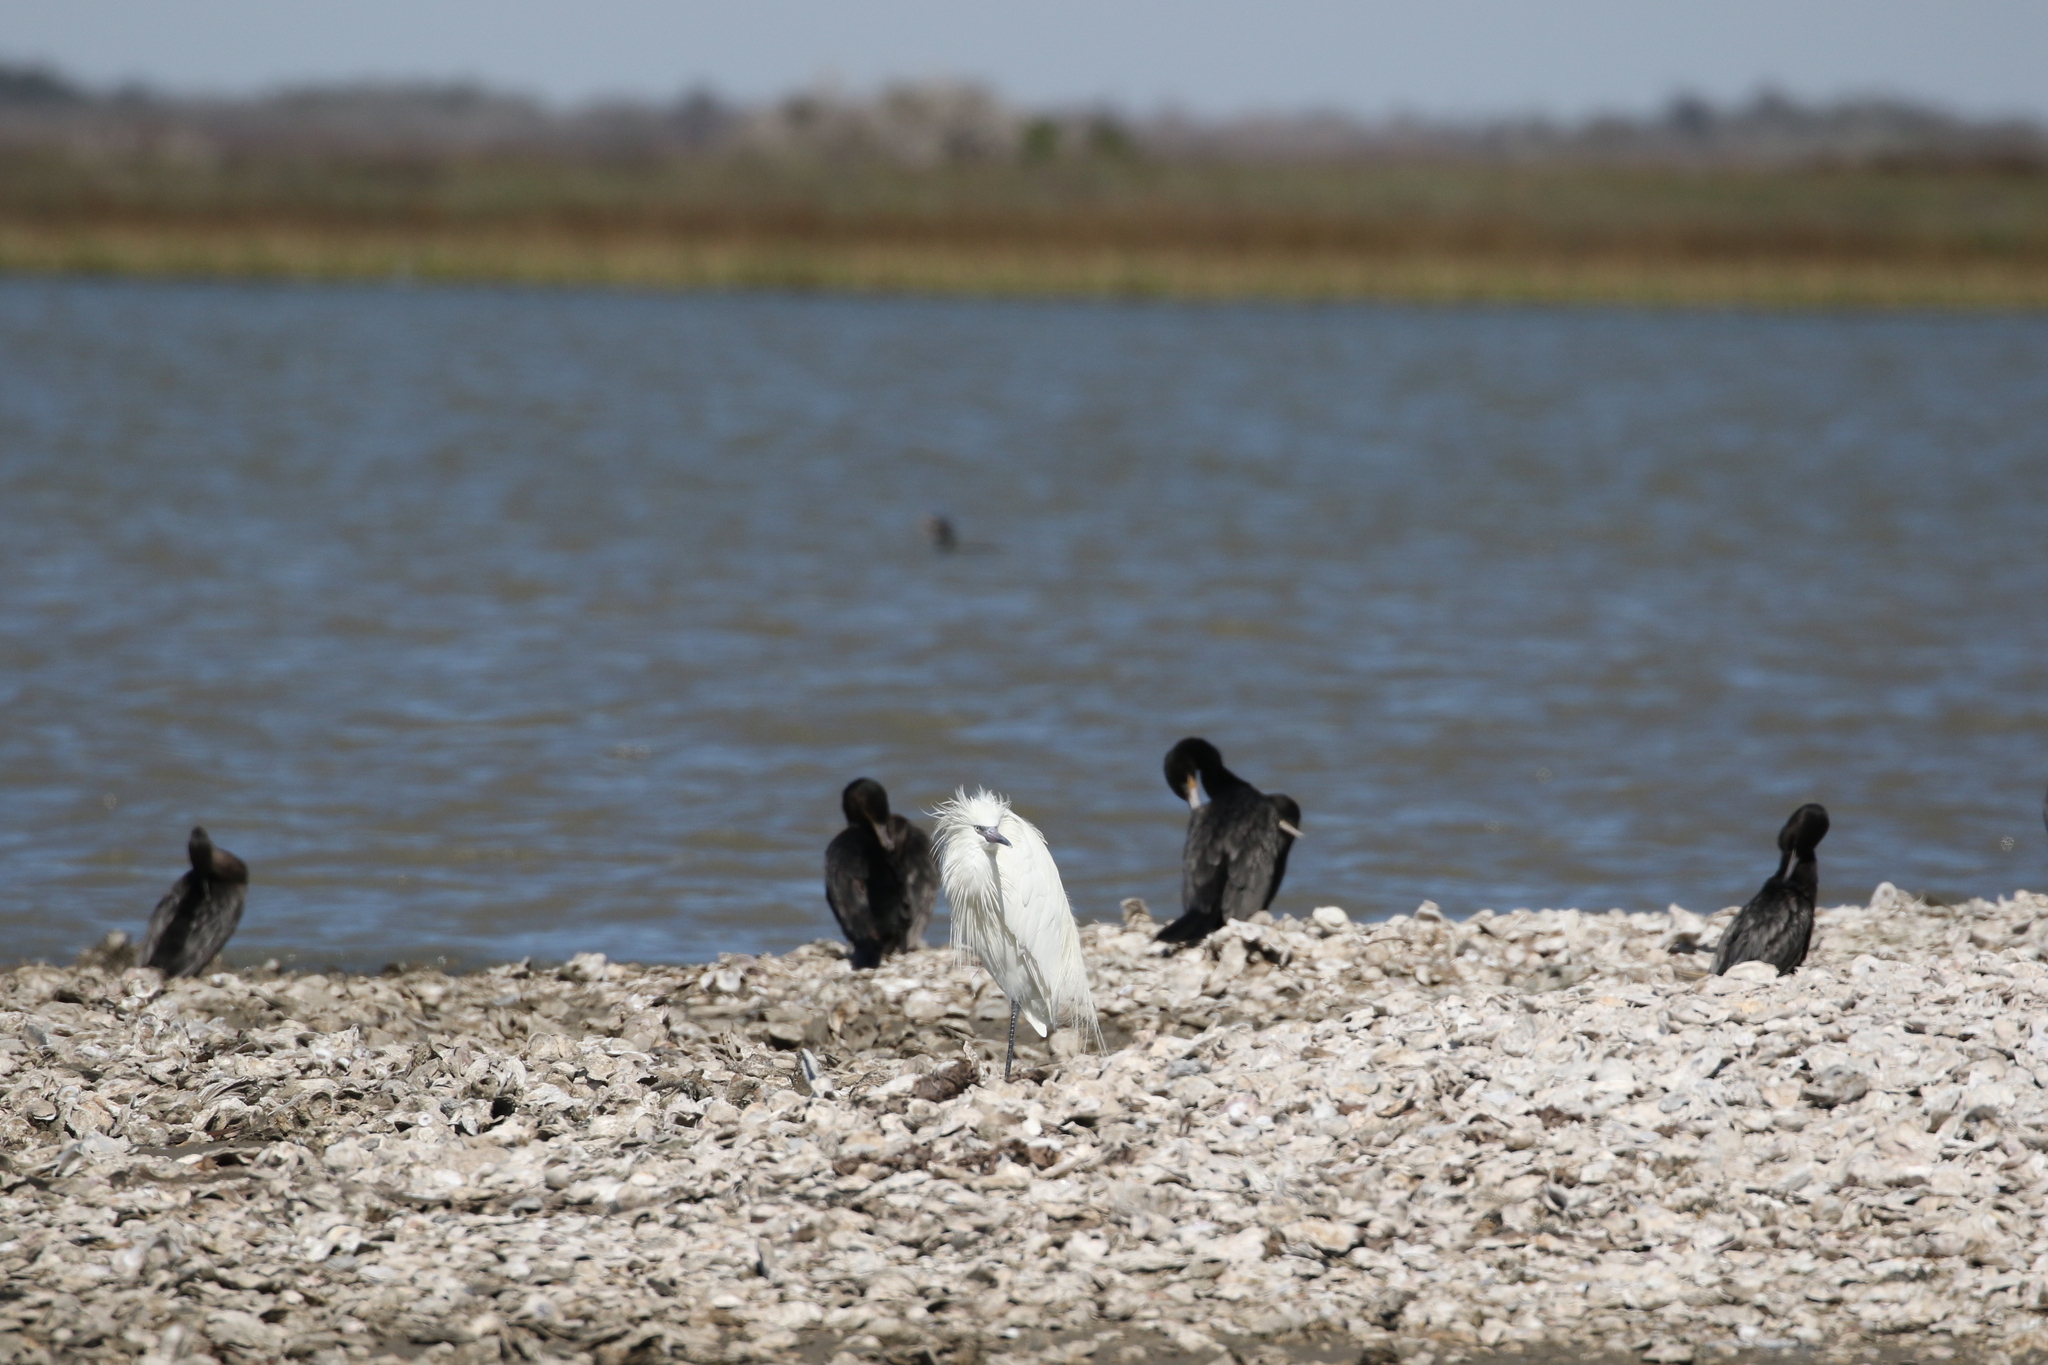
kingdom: Animalia
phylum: Chordata
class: Aves
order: Pelecaniformes
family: Ardeidae
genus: Egretta
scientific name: Egretta rufescens
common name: Reddish egret
